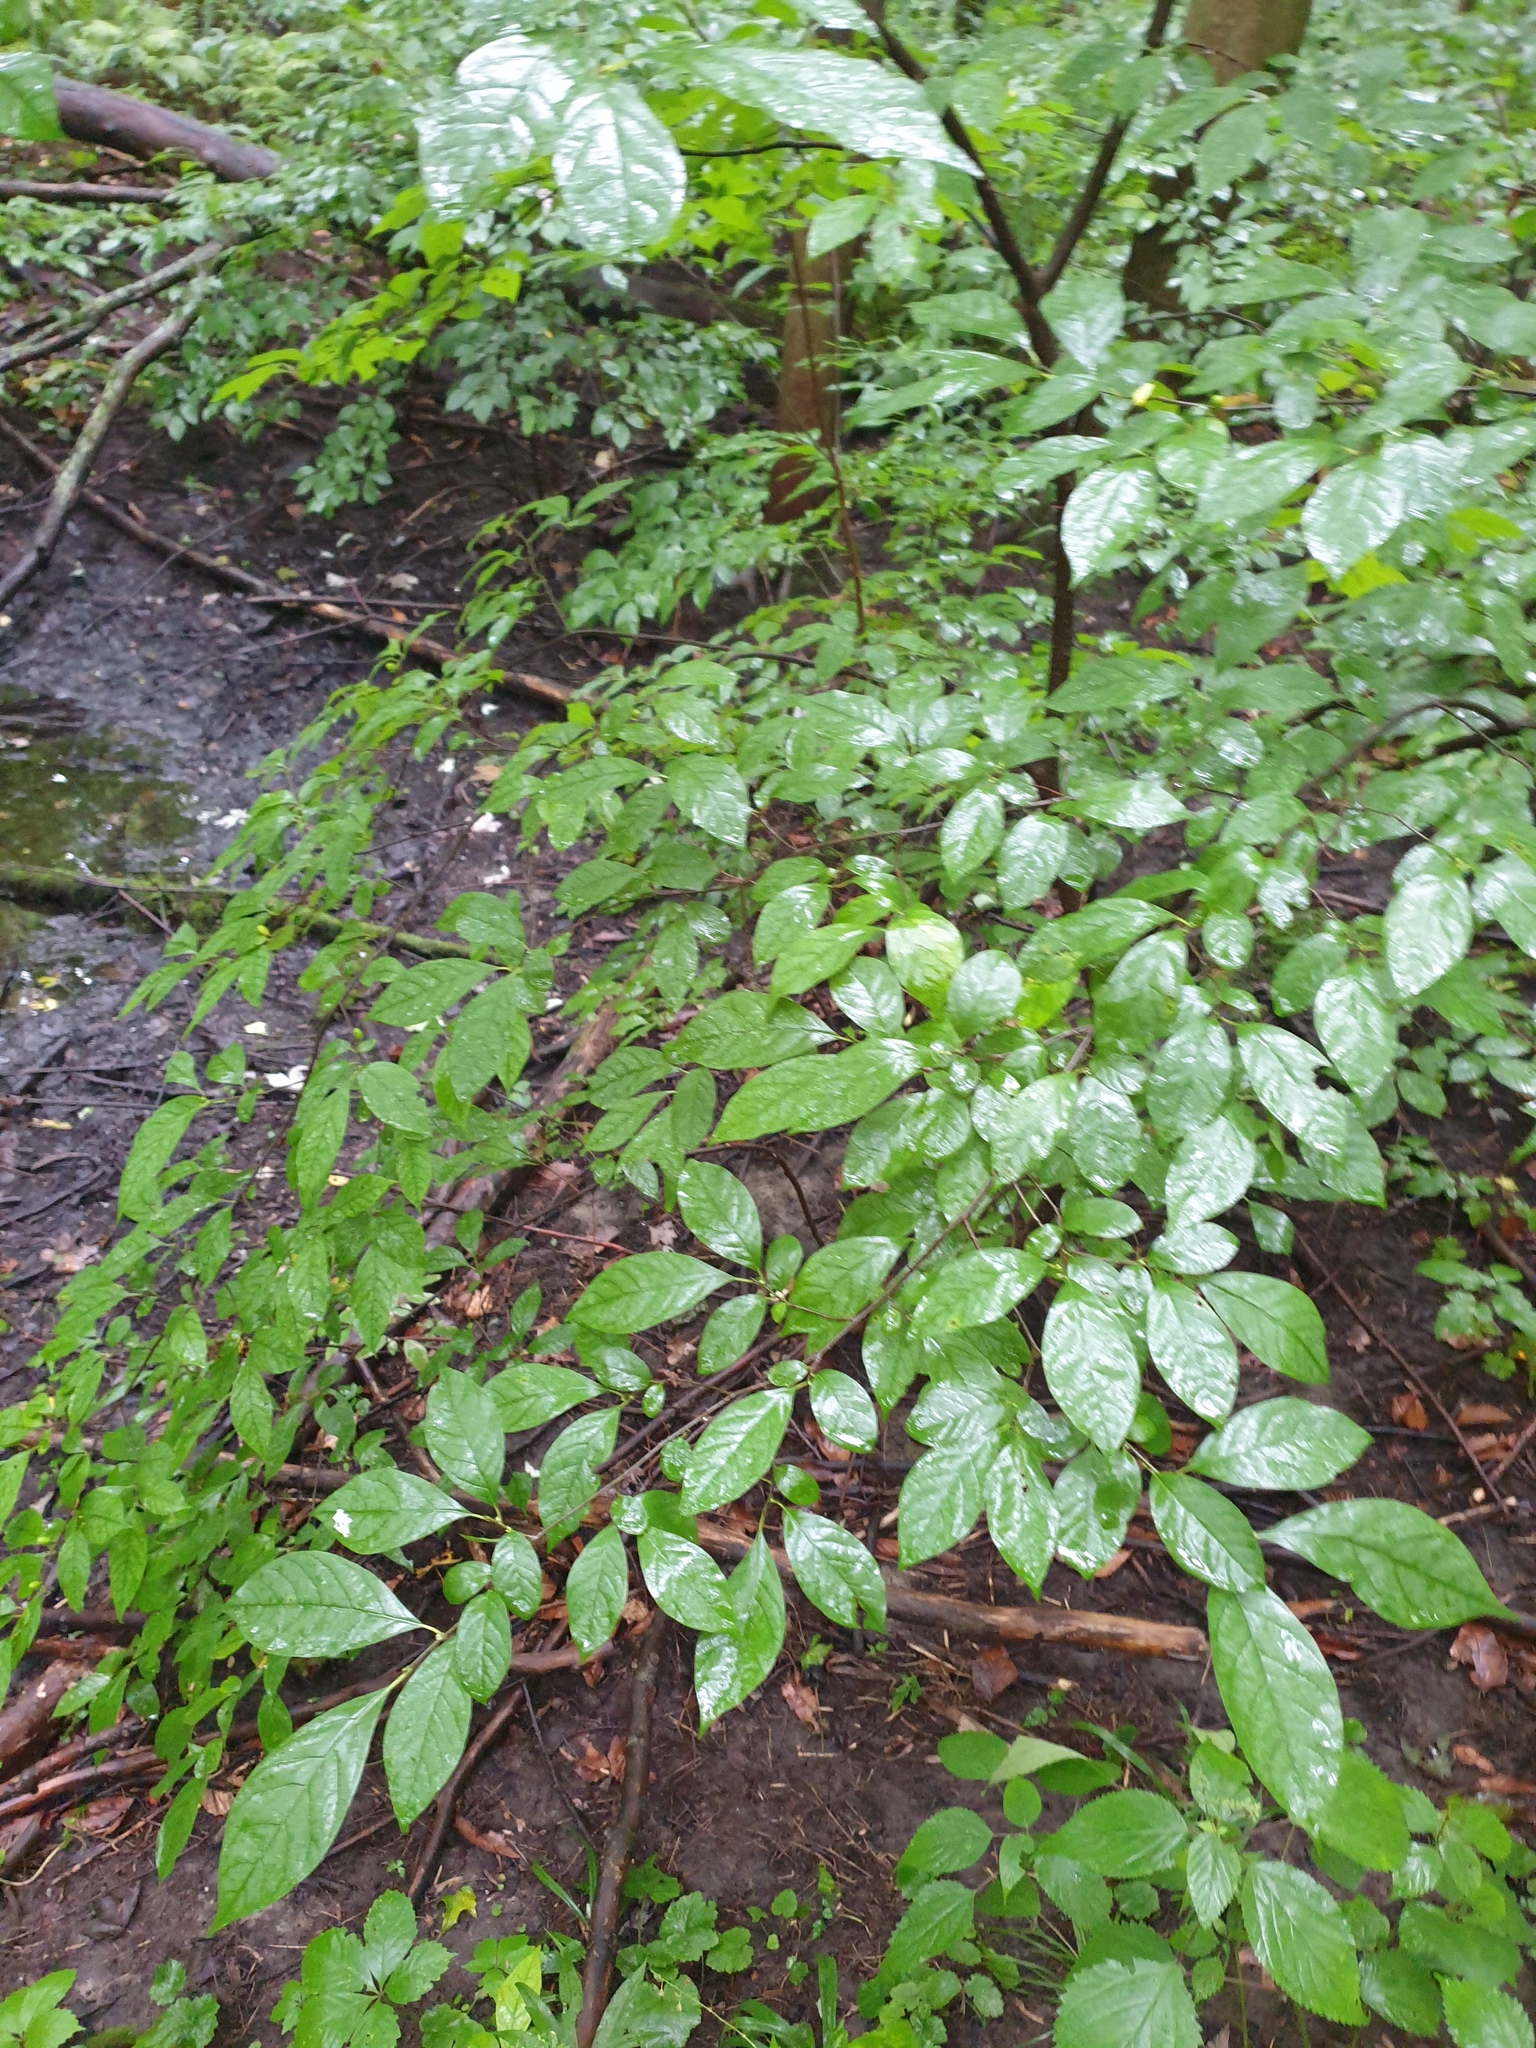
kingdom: Plantae
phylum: Tracheophyta
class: Magnoliopsida
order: Laurales
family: Lauraceae
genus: Lindera
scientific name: Lindera benzoin
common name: Spicebush
